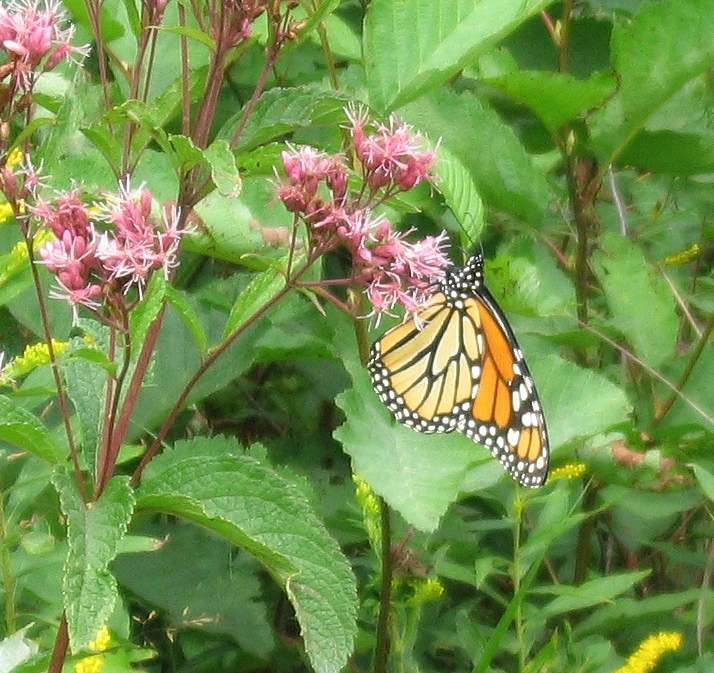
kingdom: Animalia
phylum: Arthropoda
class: Insecta
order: Lepidoptera
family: Nymphalidae
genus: Danaus
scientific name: Danaus plexippus
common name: Monarch
